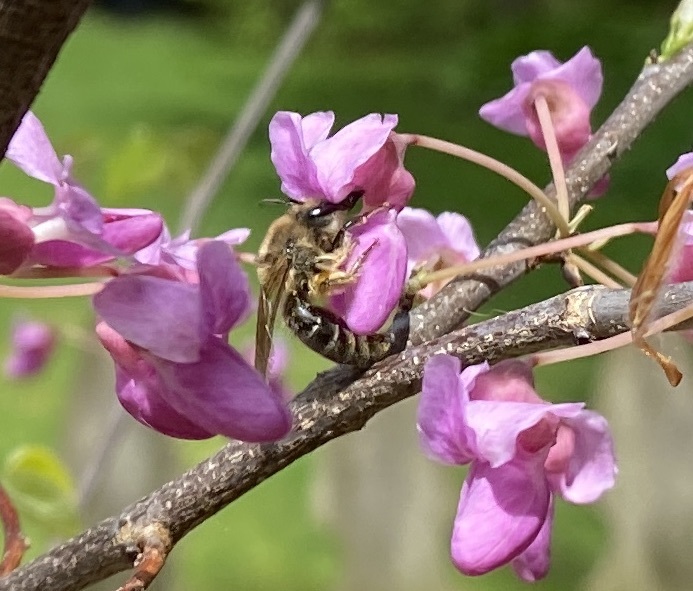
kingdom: Animalia
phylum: Arthropoda
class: Insecta
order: Hymenoptera
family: Colletidae
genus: Colletes
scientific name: Colletes inaequalis
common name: Unequal cellophane bee
